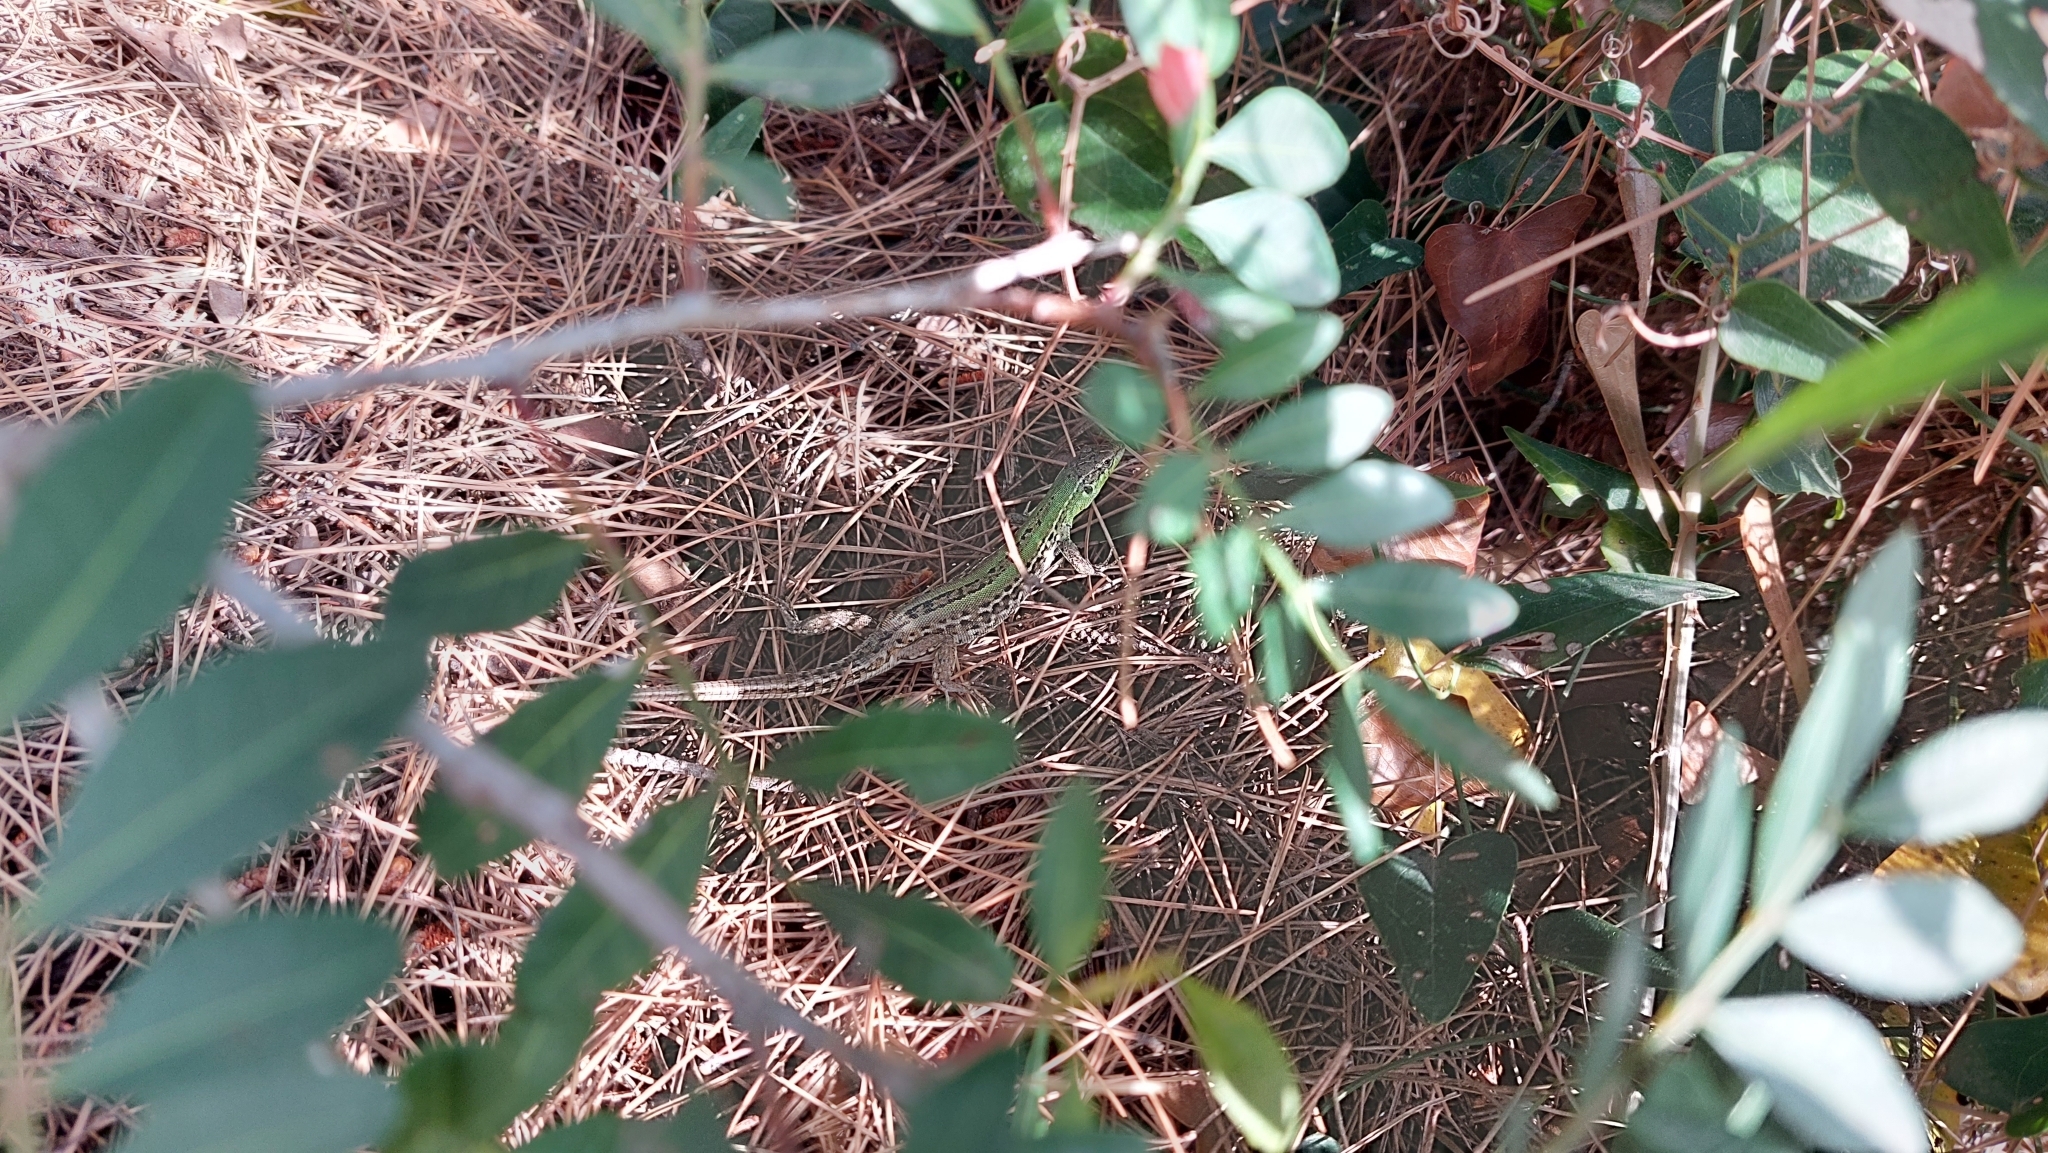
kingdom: Animalia
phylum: Chordata
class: Squamata
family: Lacertidae
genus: Podarcis
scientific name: Podarcis siculus
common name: Italian wall lizard
